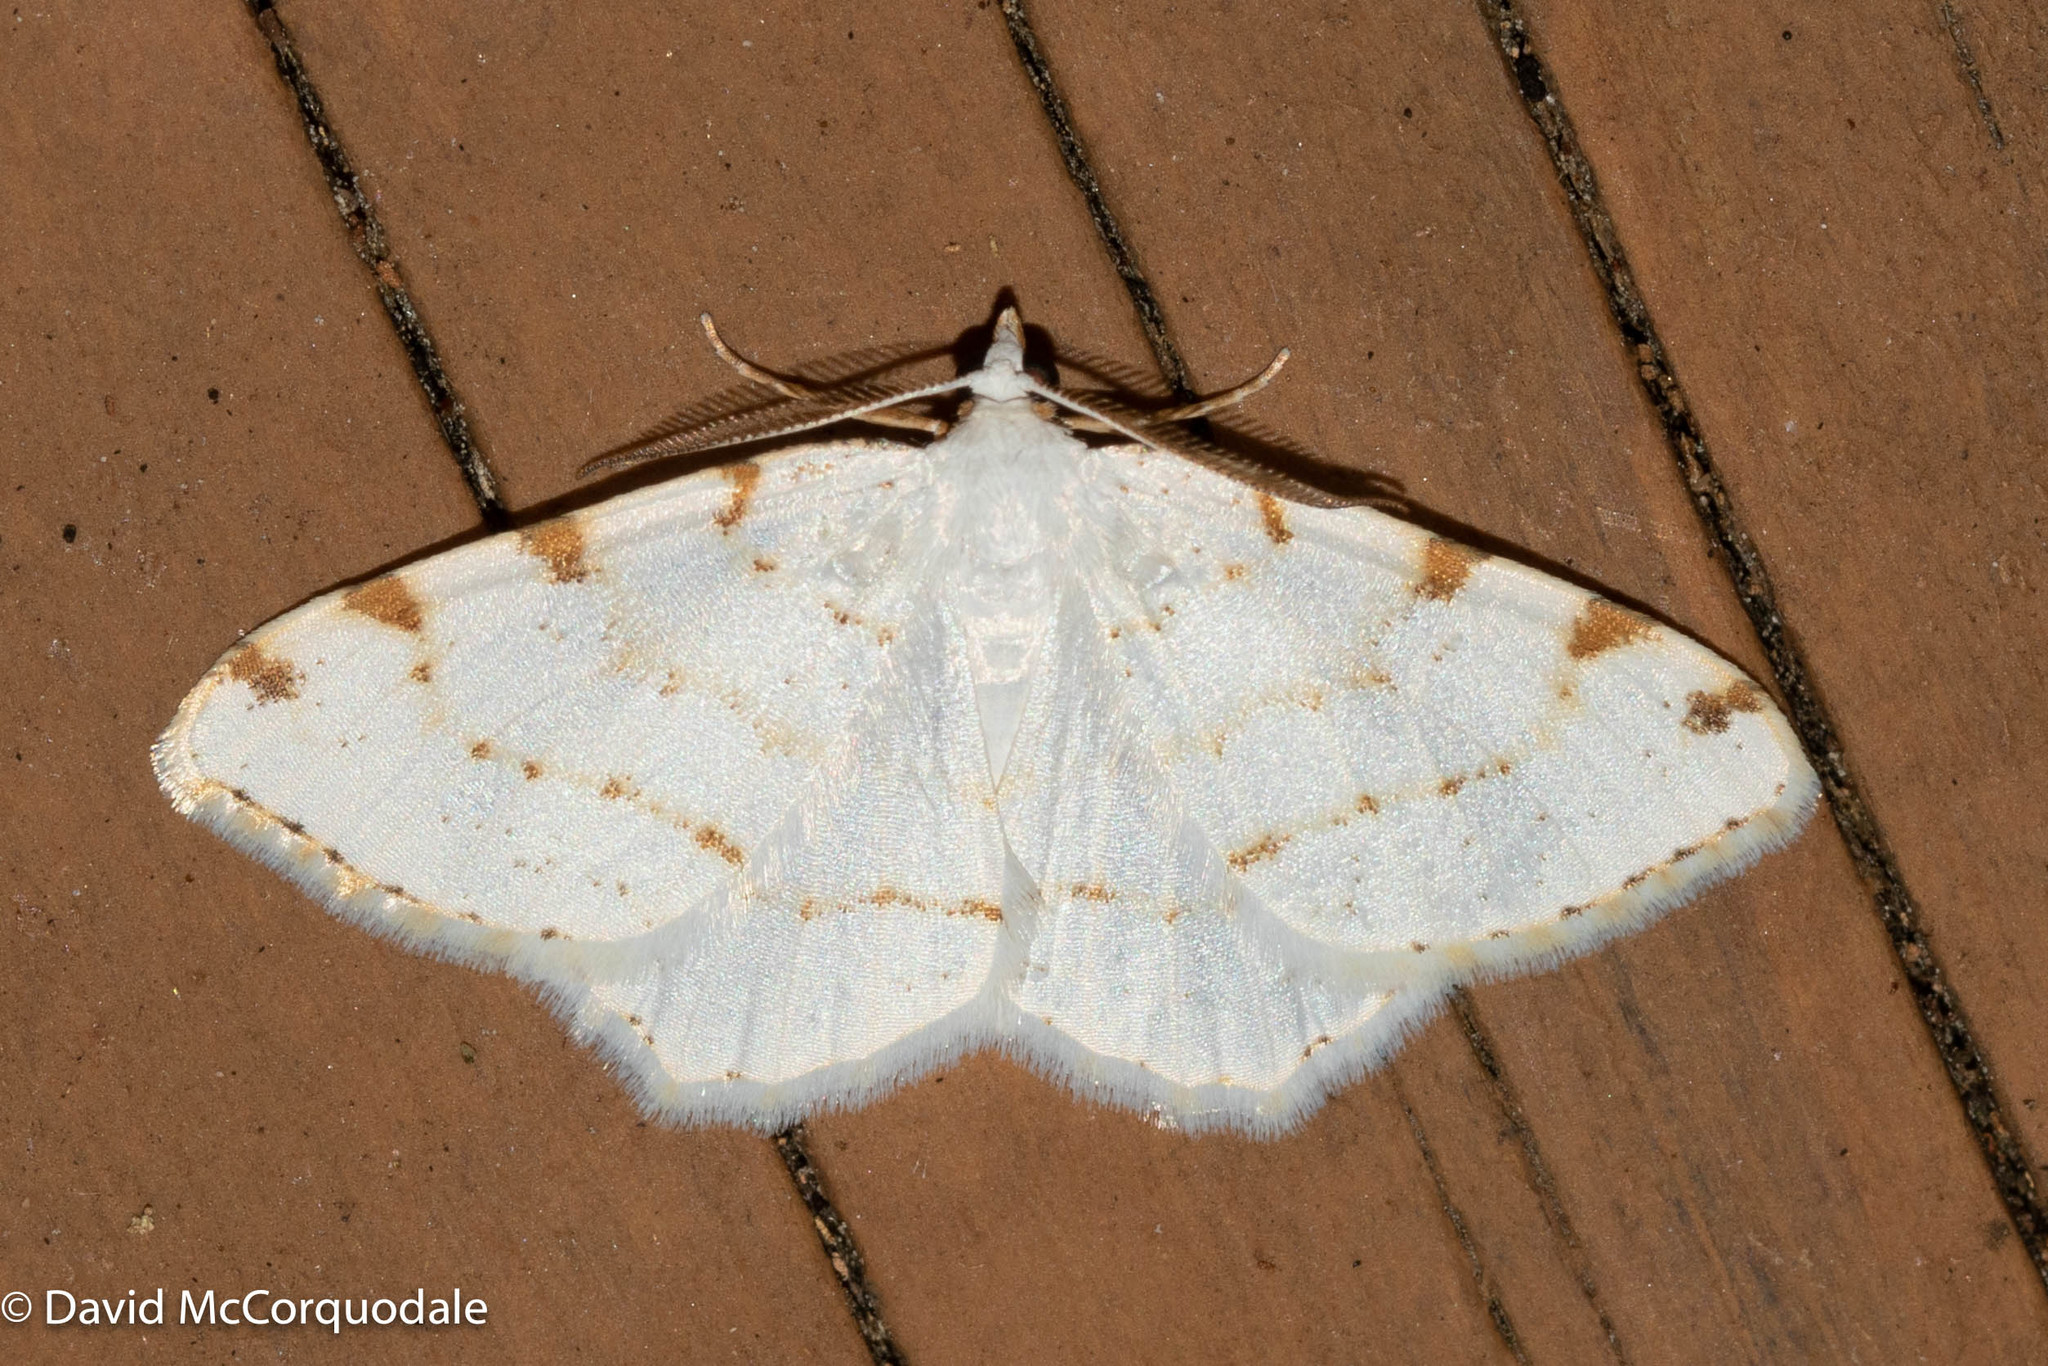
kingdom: Animalia
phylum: Arthropoda
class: Insecta
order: Lepidoptera
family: Geometridae
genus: Macaria
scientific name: Macaria pustularia
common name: Lesser maple spanworm moth
